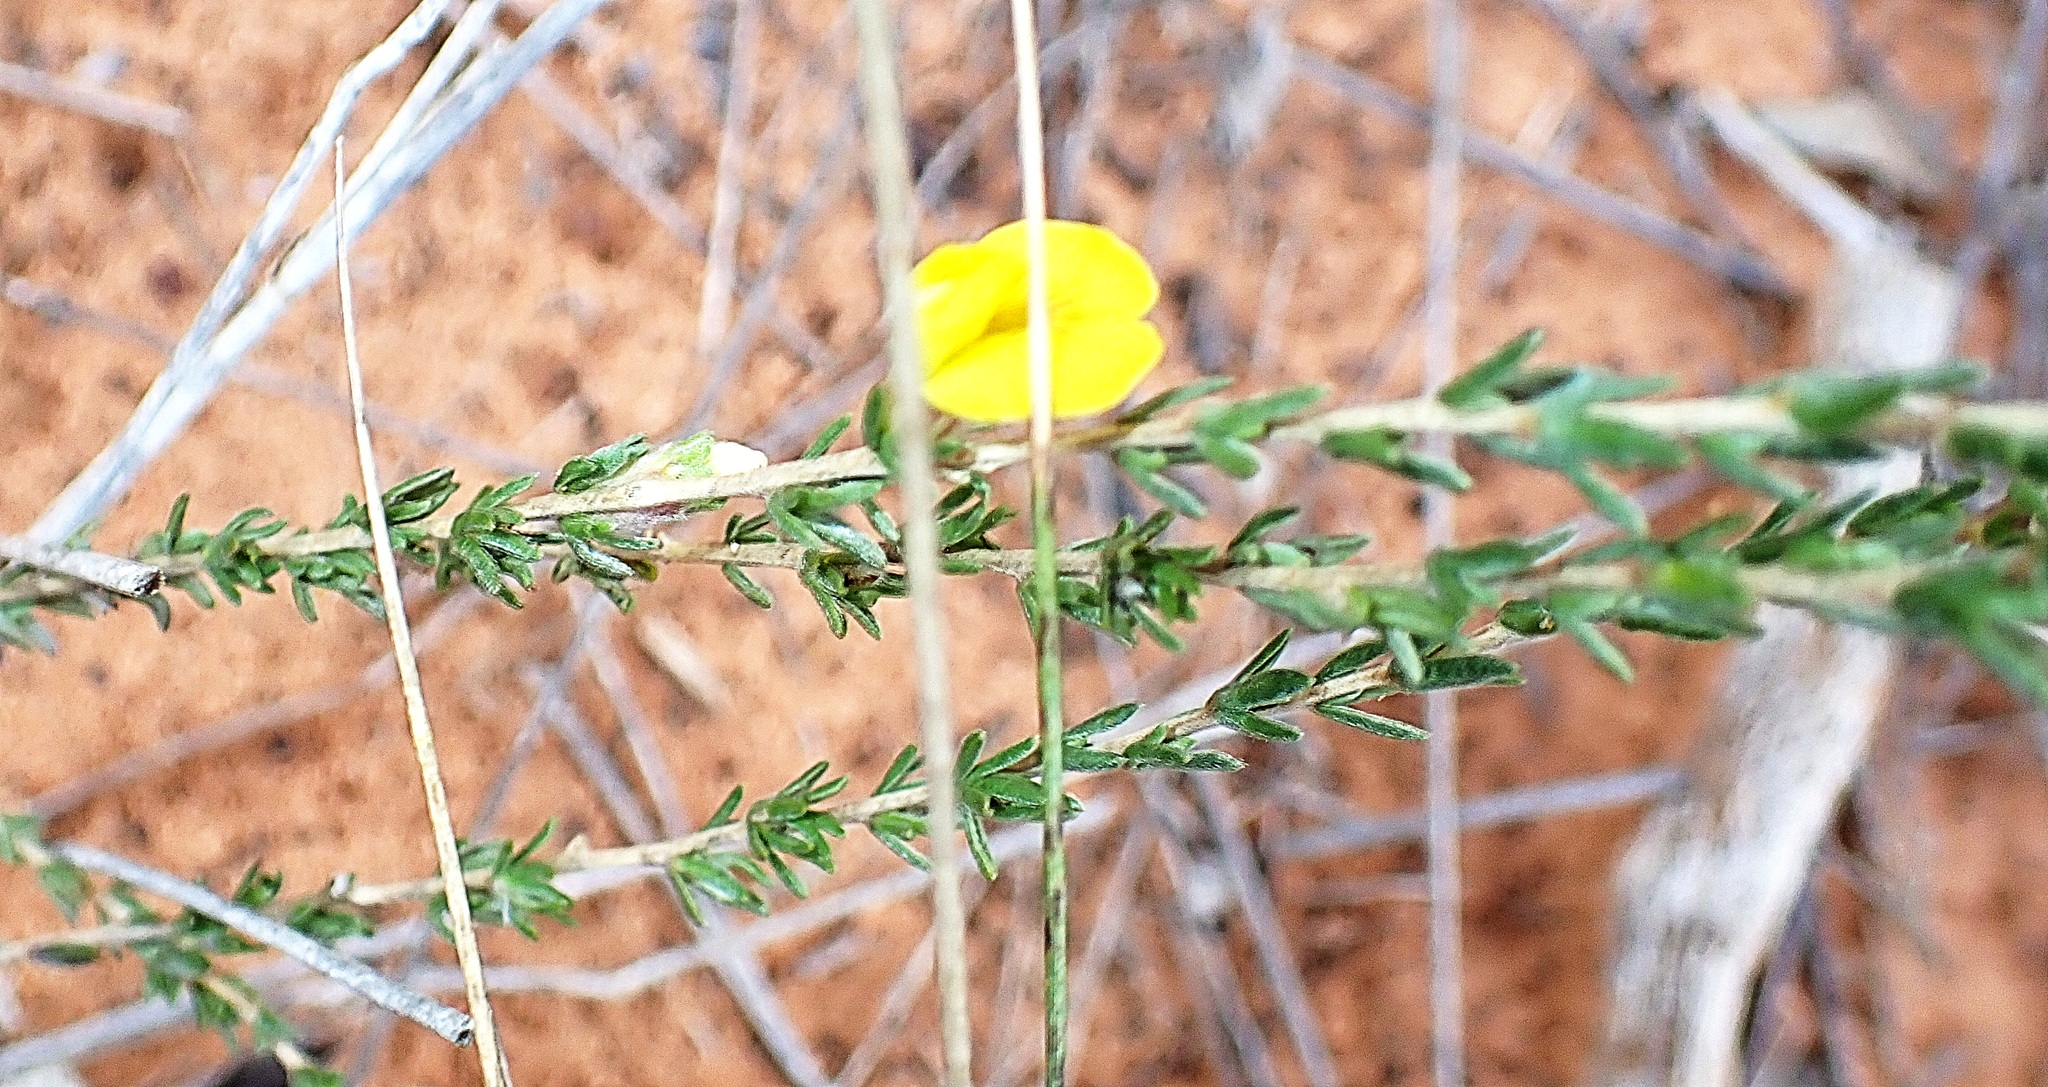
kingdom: Plantae
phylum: Tracheophyta
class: Magnoliopsida
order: Fabales
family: Fabaceae
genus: Aspalathus
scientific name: Aspalathus quadrata
